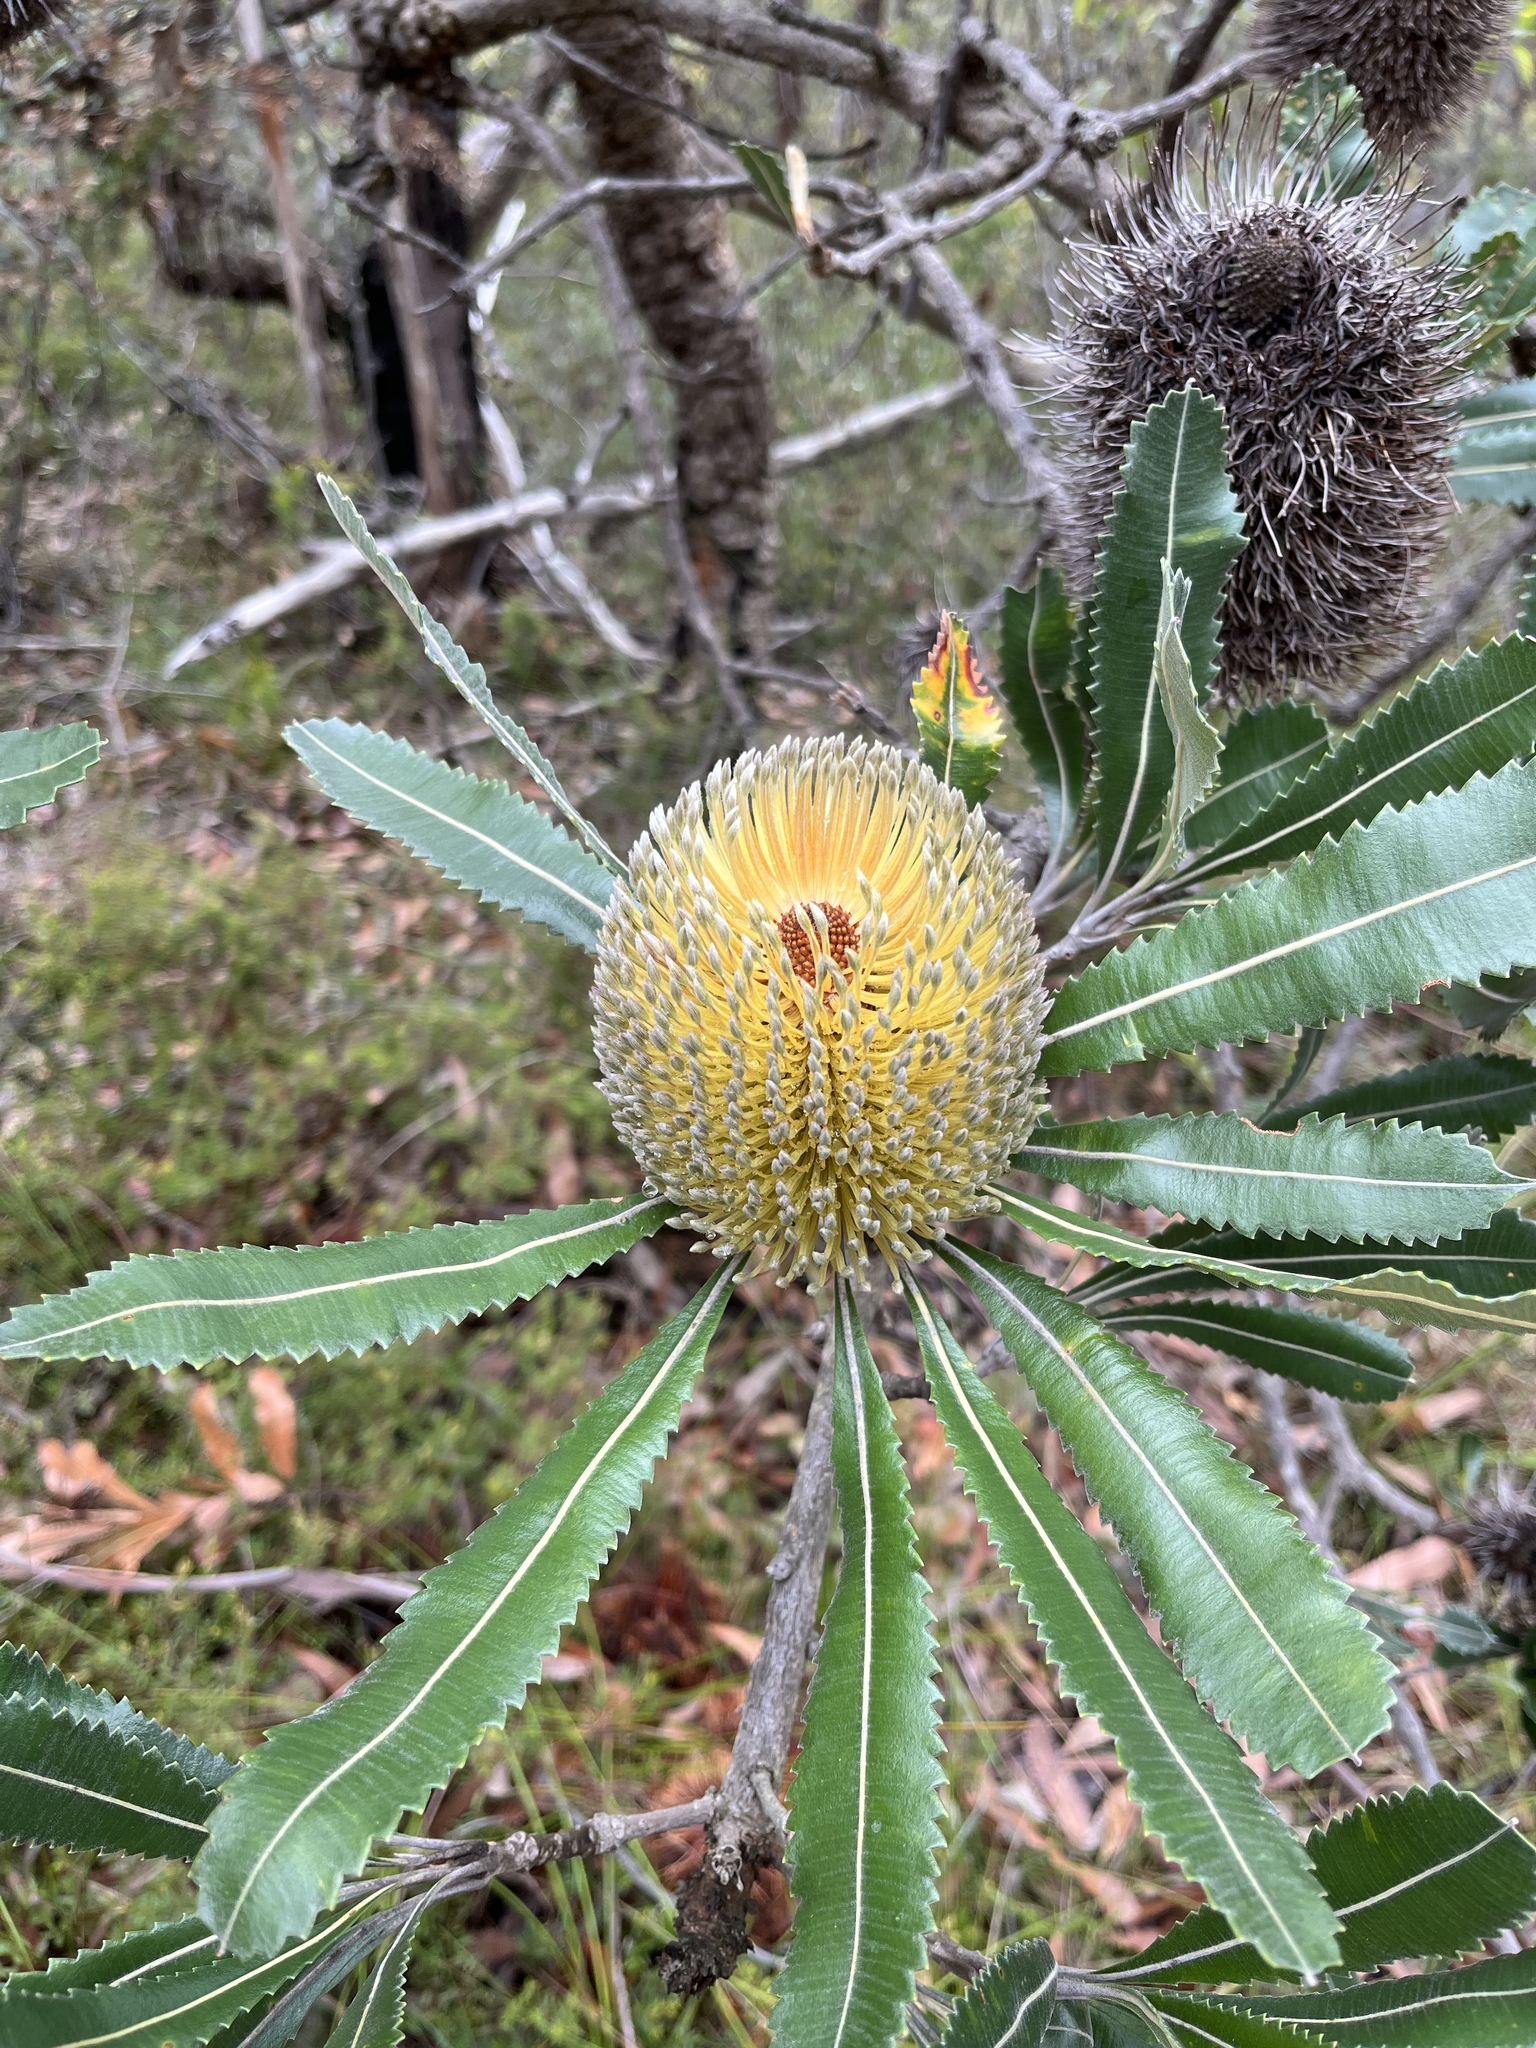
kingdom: Plantae
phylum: Tracheophyta
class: Magnoliopsida
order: Proteales
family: Proteaceae
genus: Banksia
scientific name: Banksia serrata
